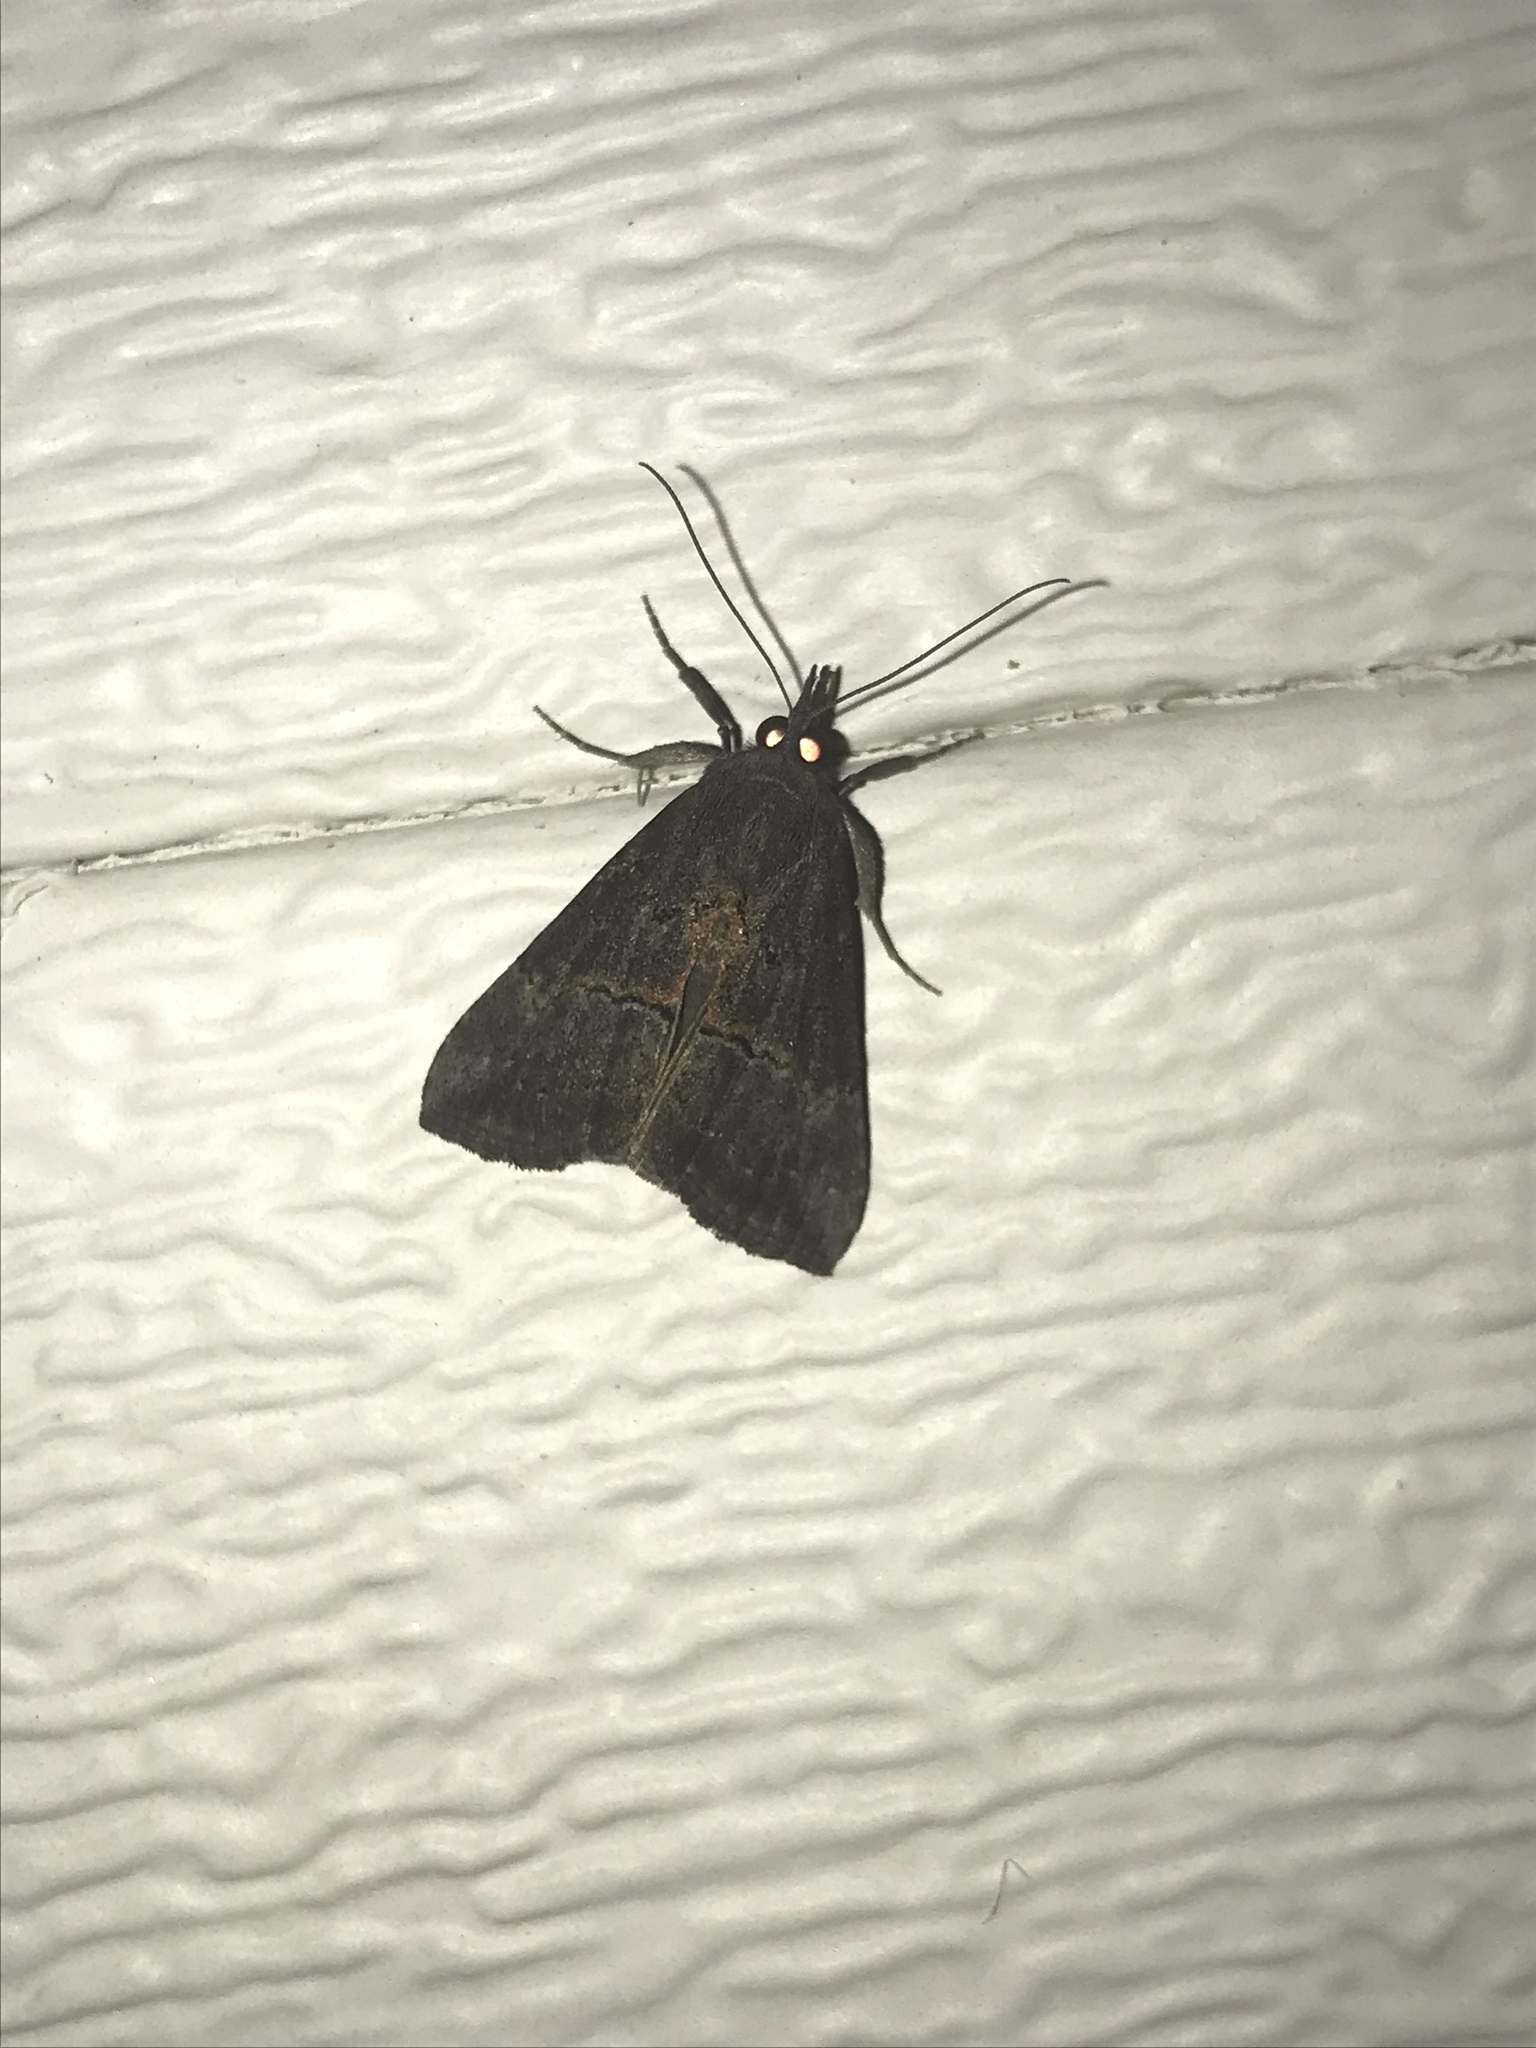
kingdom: Animalia
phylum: Arthropoda
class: Insecta
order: Lepidoptera
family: Erebidae
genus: Hypena
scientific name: Hypena scabra
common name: Green cloverworm
